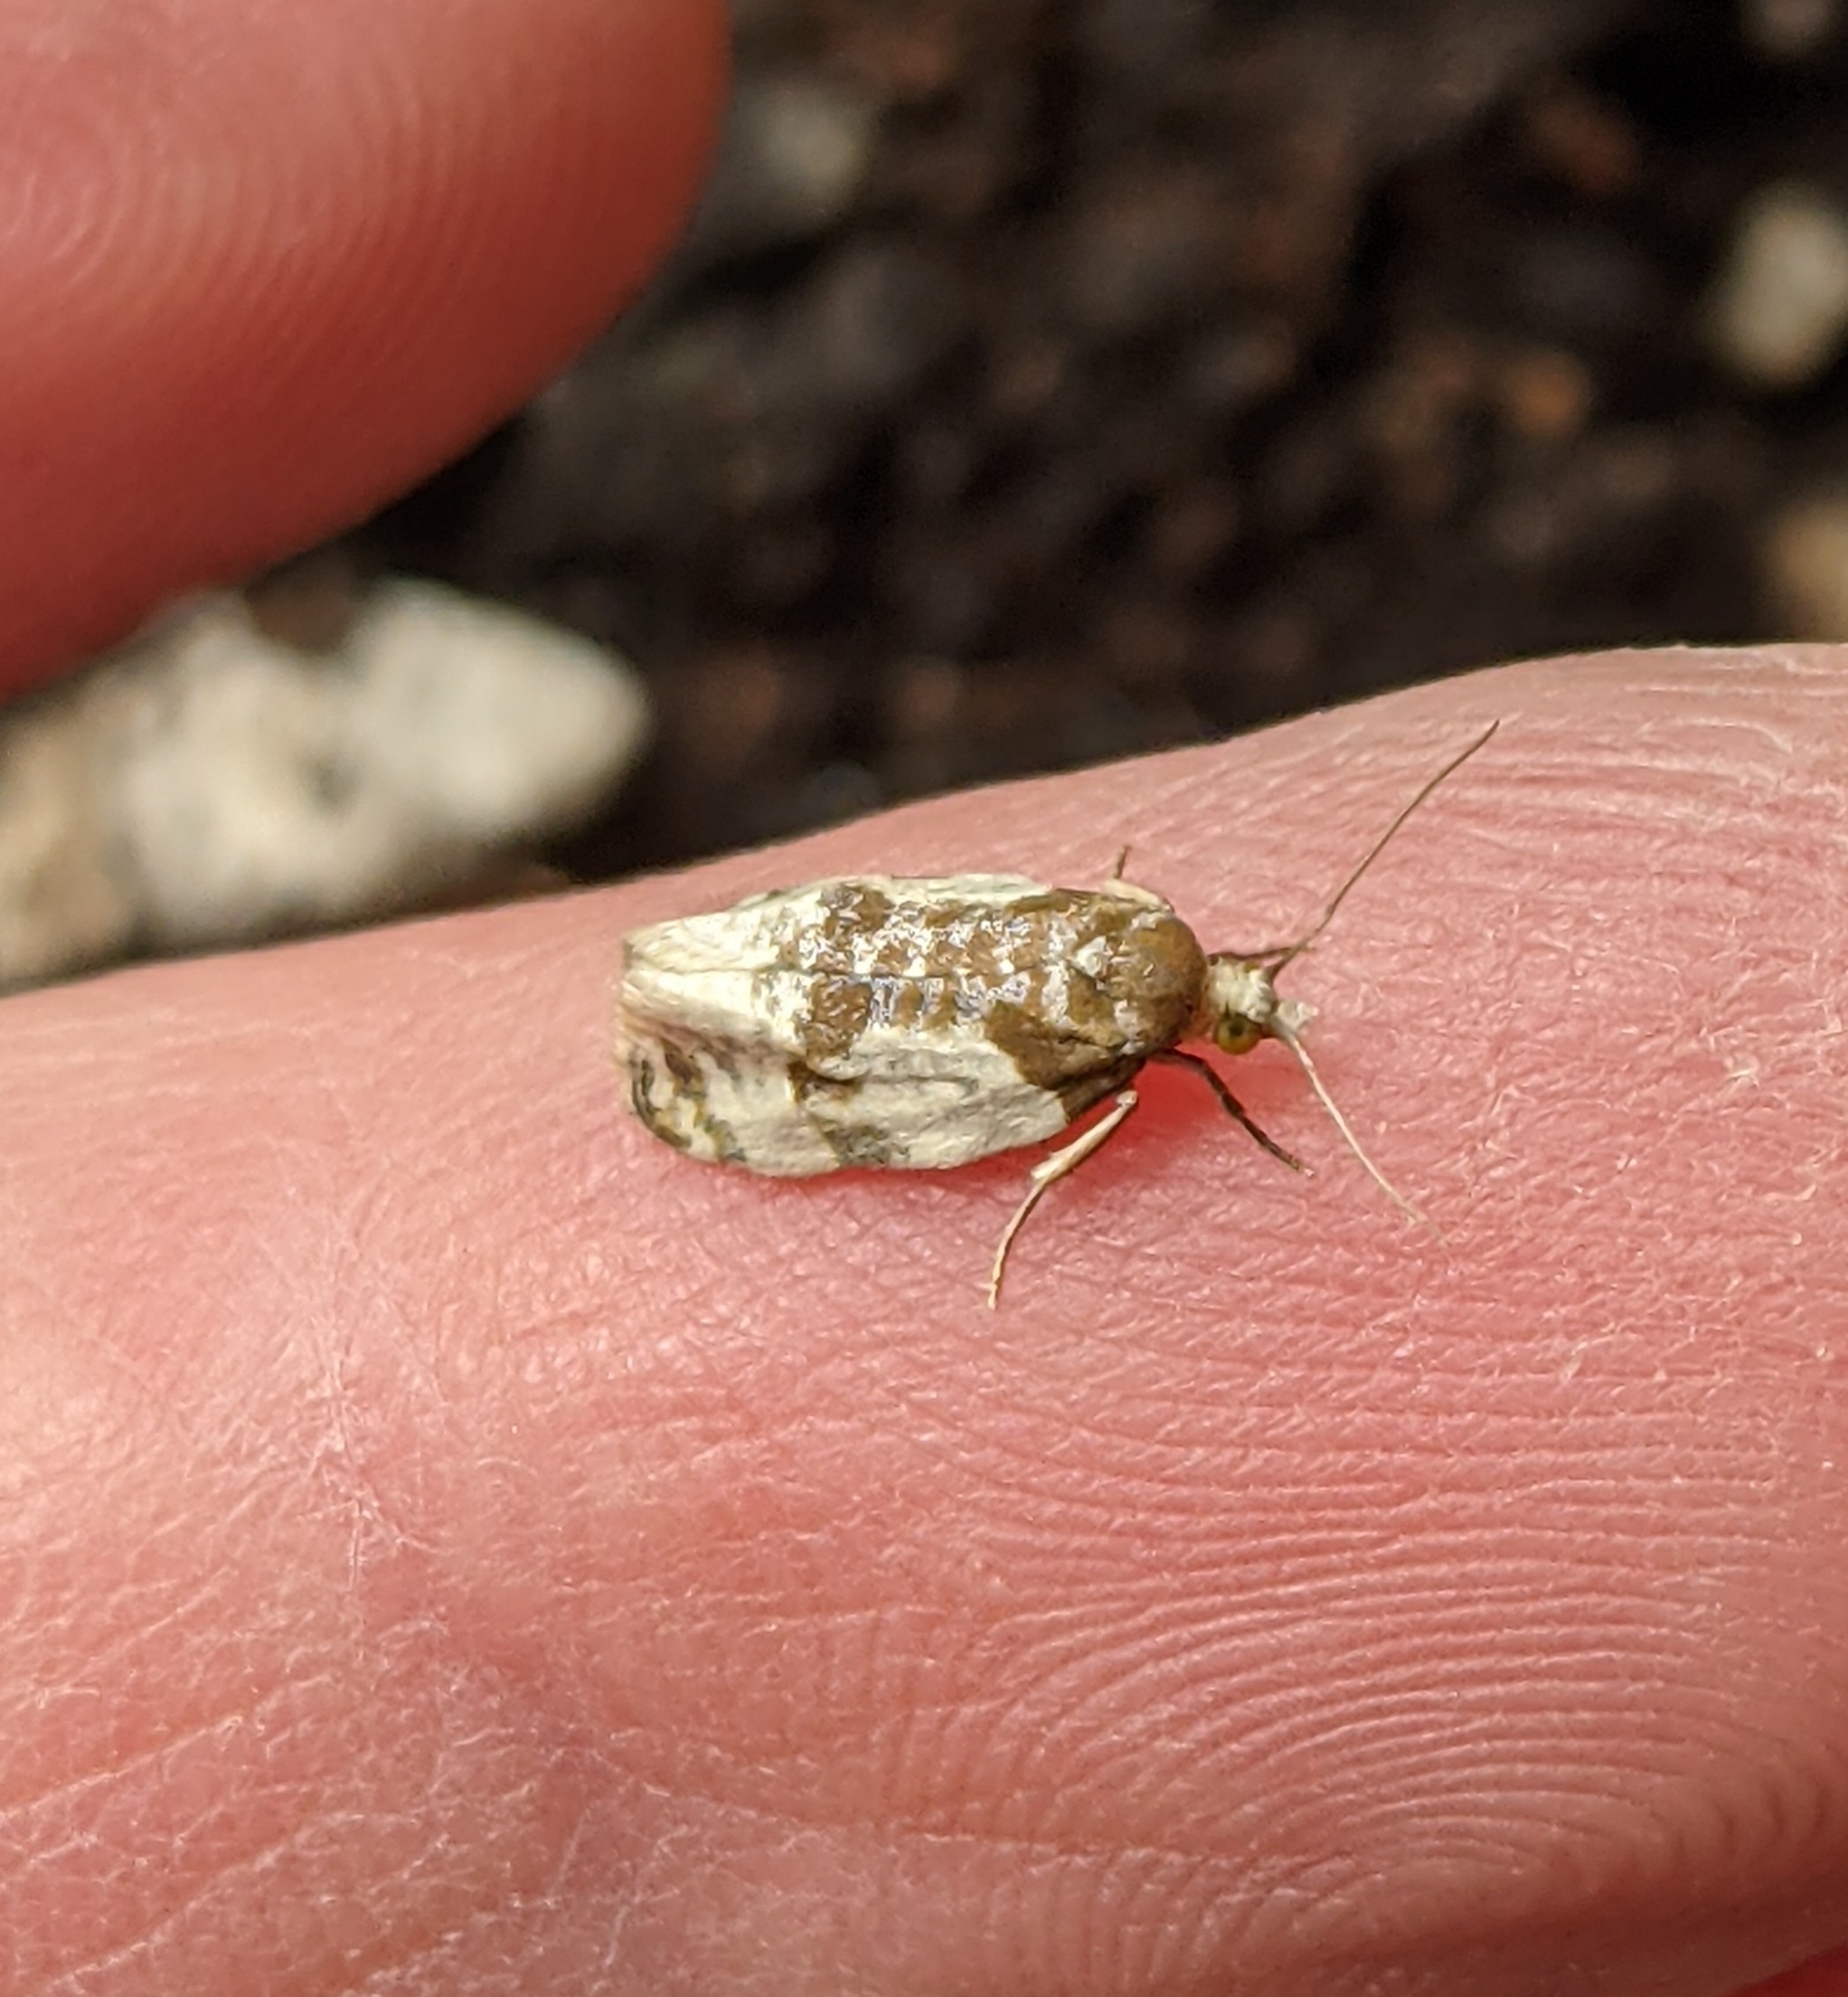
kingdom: Animalia
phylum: Arthropoda
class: Insecta
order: Lepidoptera
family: Tortricidae
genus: Henricus
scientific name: Henricus fuscodorsana
